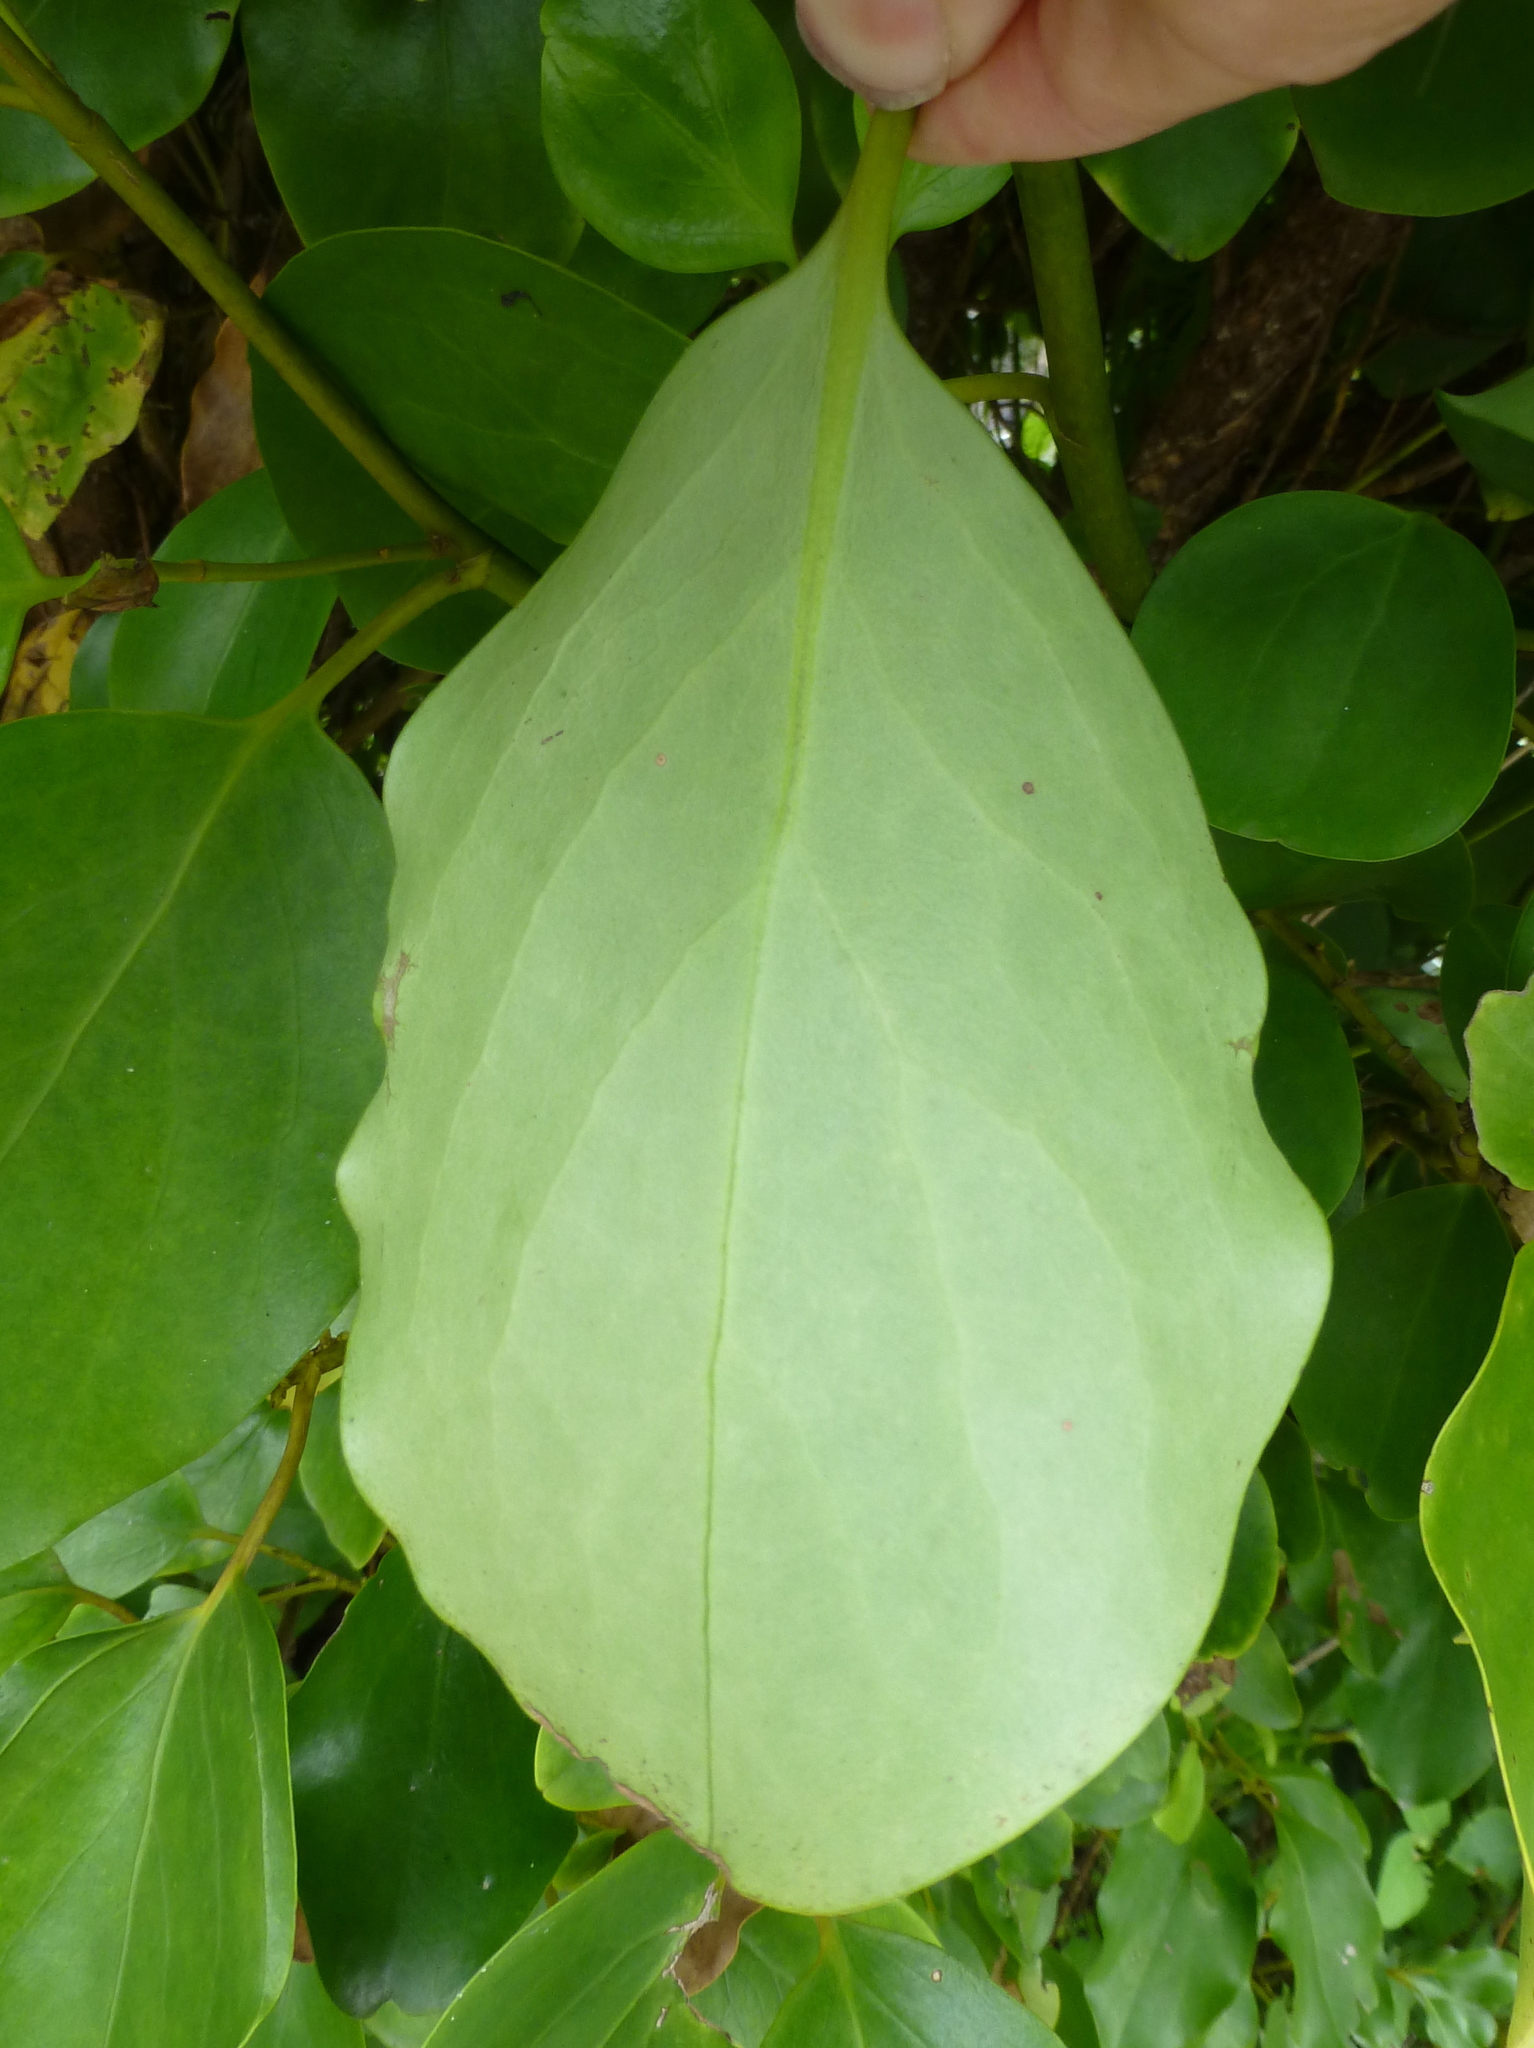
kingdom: Plantae
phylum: Tracheophyta
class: Magnoliopsida
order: Apiales
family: Griseliniaceae
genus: Griselinia
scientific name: Griselinia littoralis
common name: New zealand broadleaf
